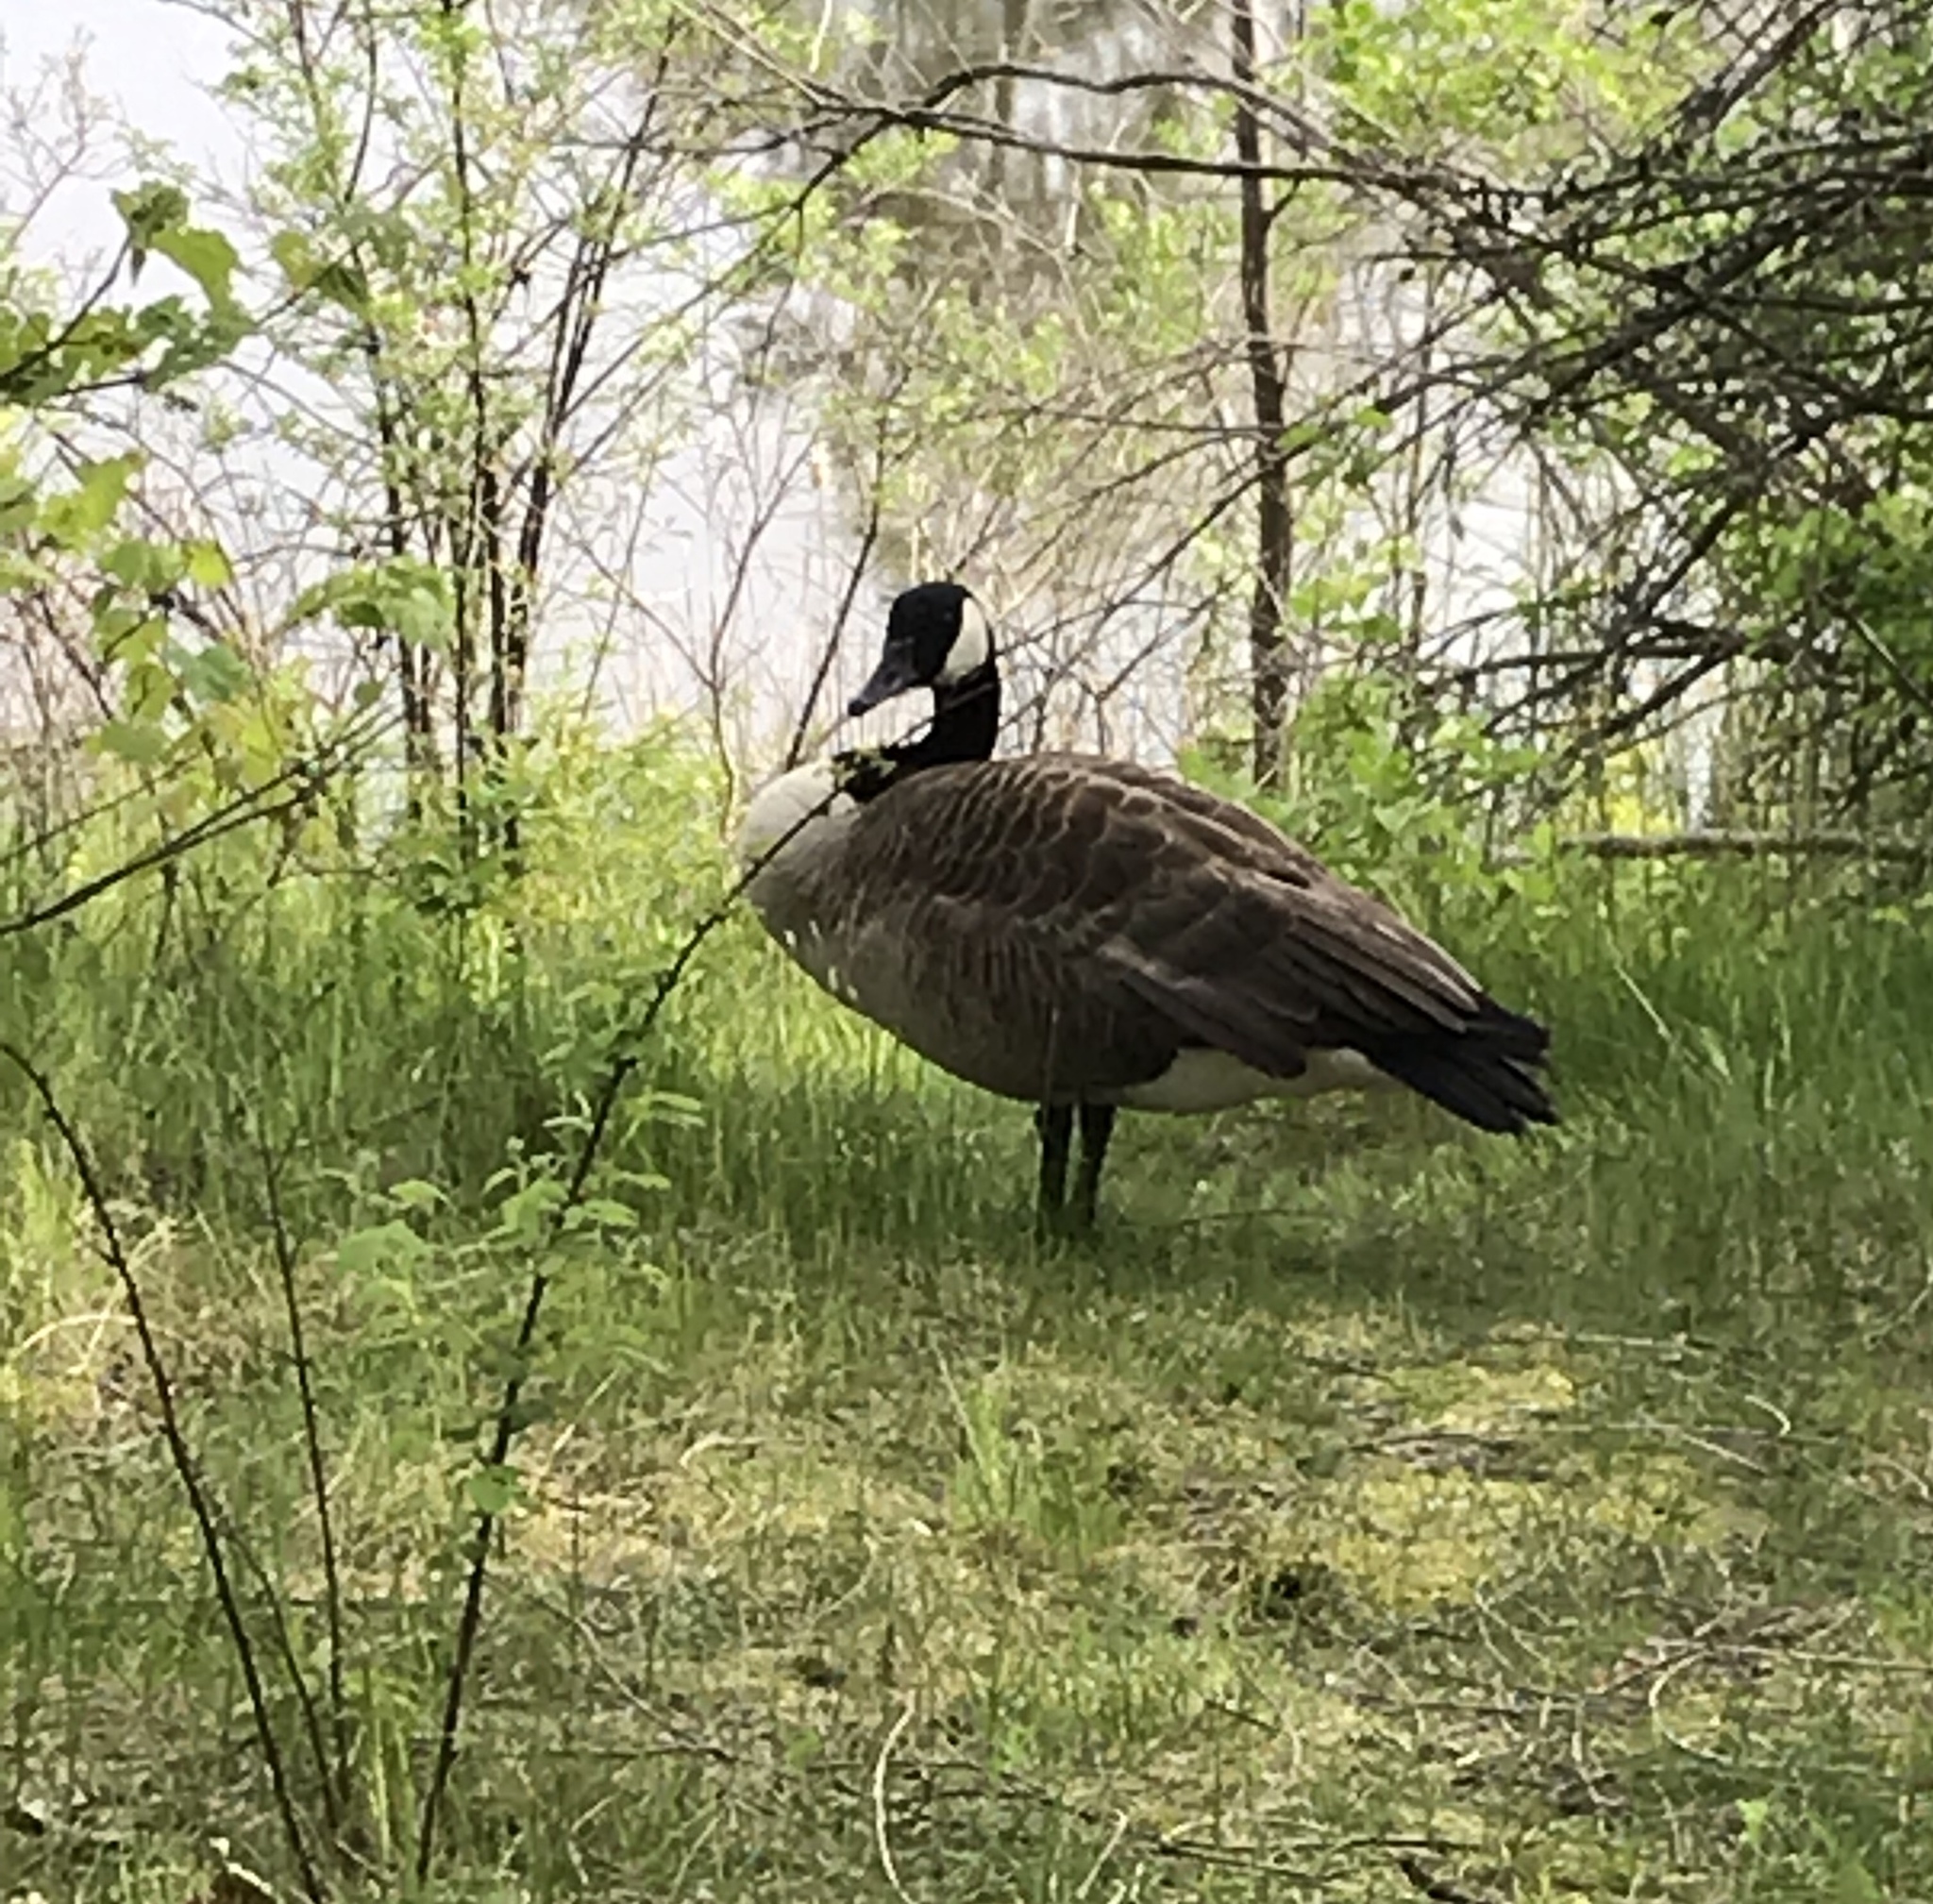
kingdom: Animalia
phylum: Chordata
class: Aves
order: Anseriformes
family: Anatidae
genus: Branta
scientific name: Branta canadensis
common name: Canada goose
